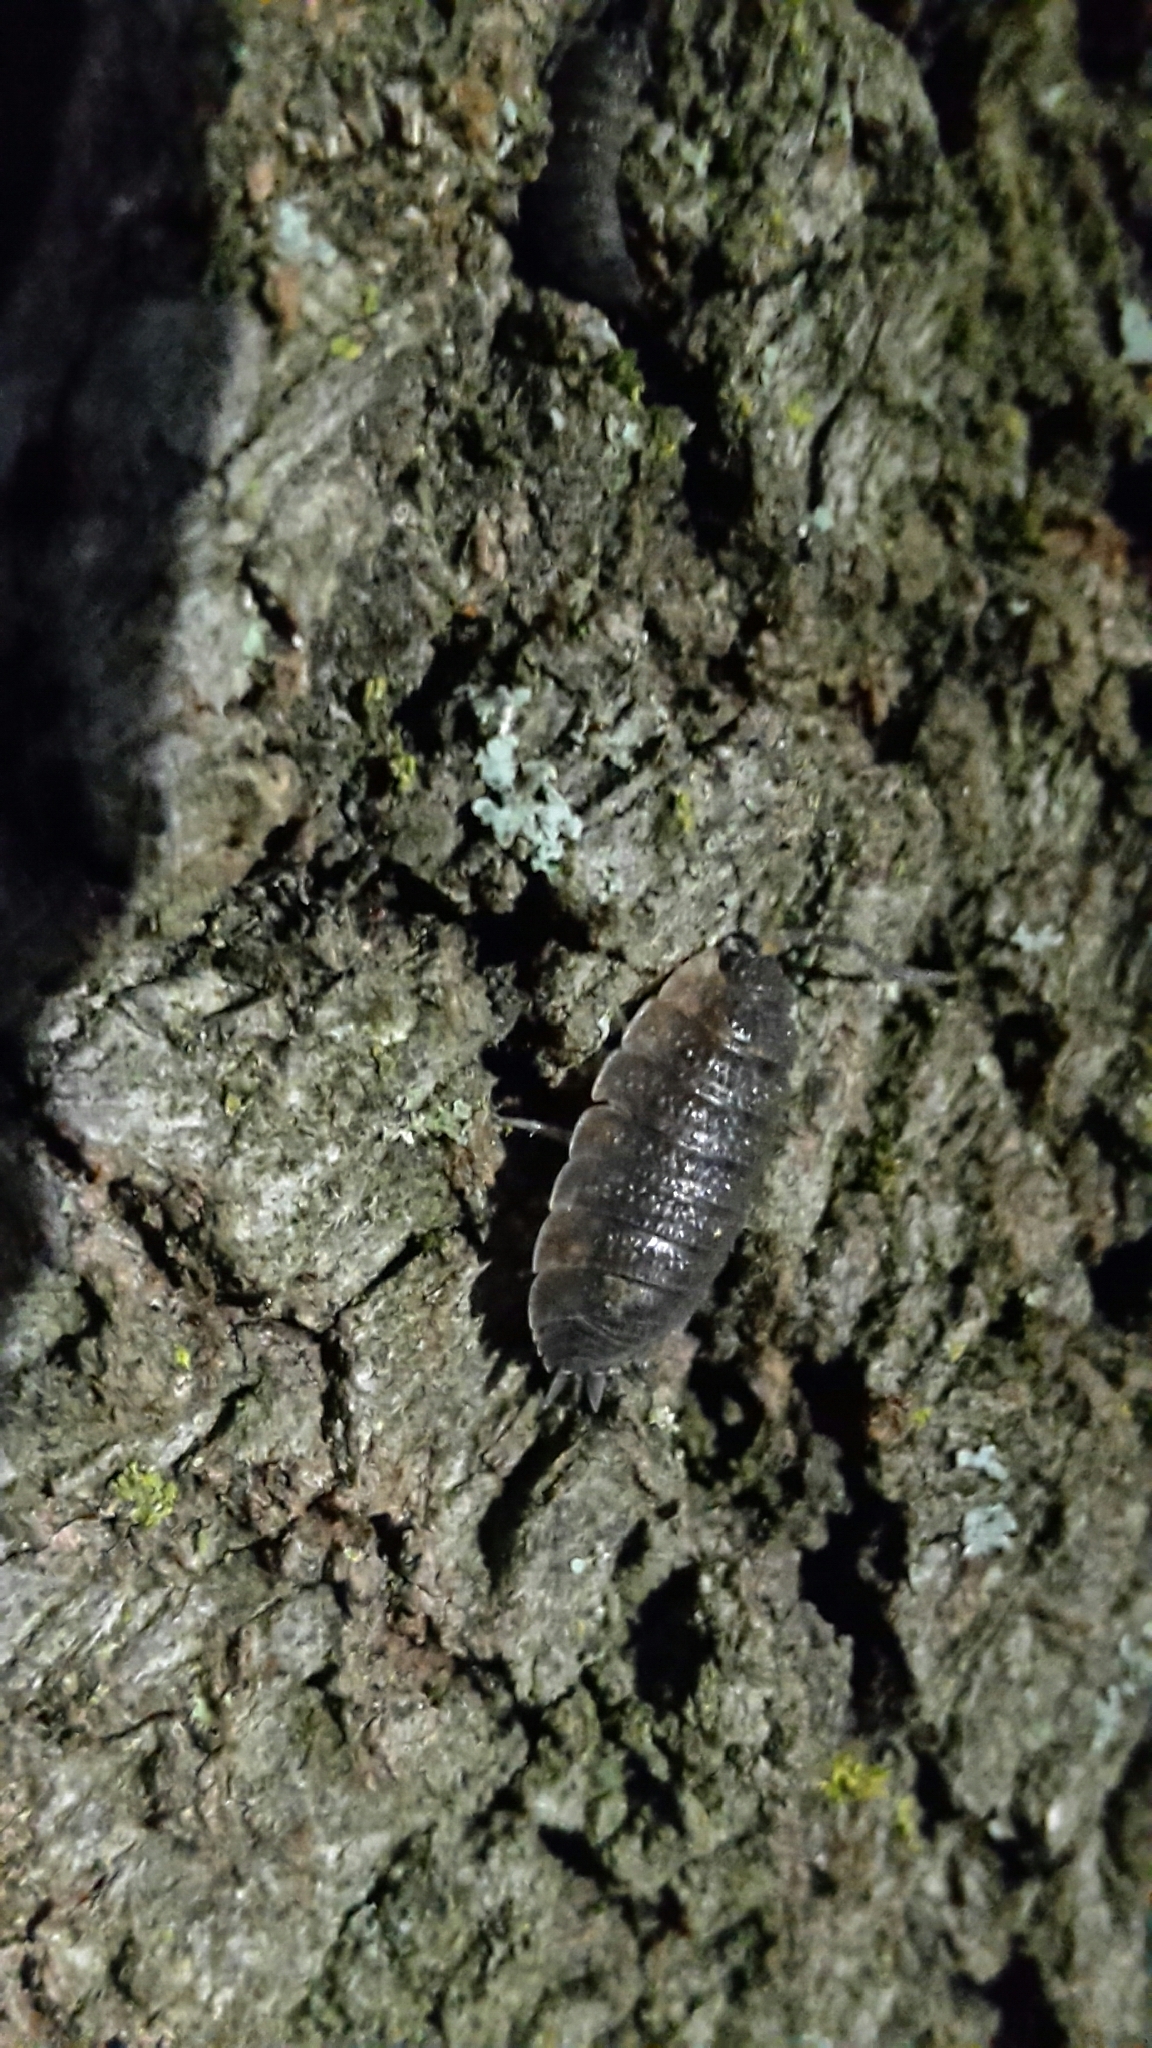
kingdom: Animalia
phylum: Arthropoda
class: Malacostraca
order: Isopoda
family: Porcellionidae
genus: Porcellio
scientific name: Porcellio scaber
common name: Common rough woodlouse
